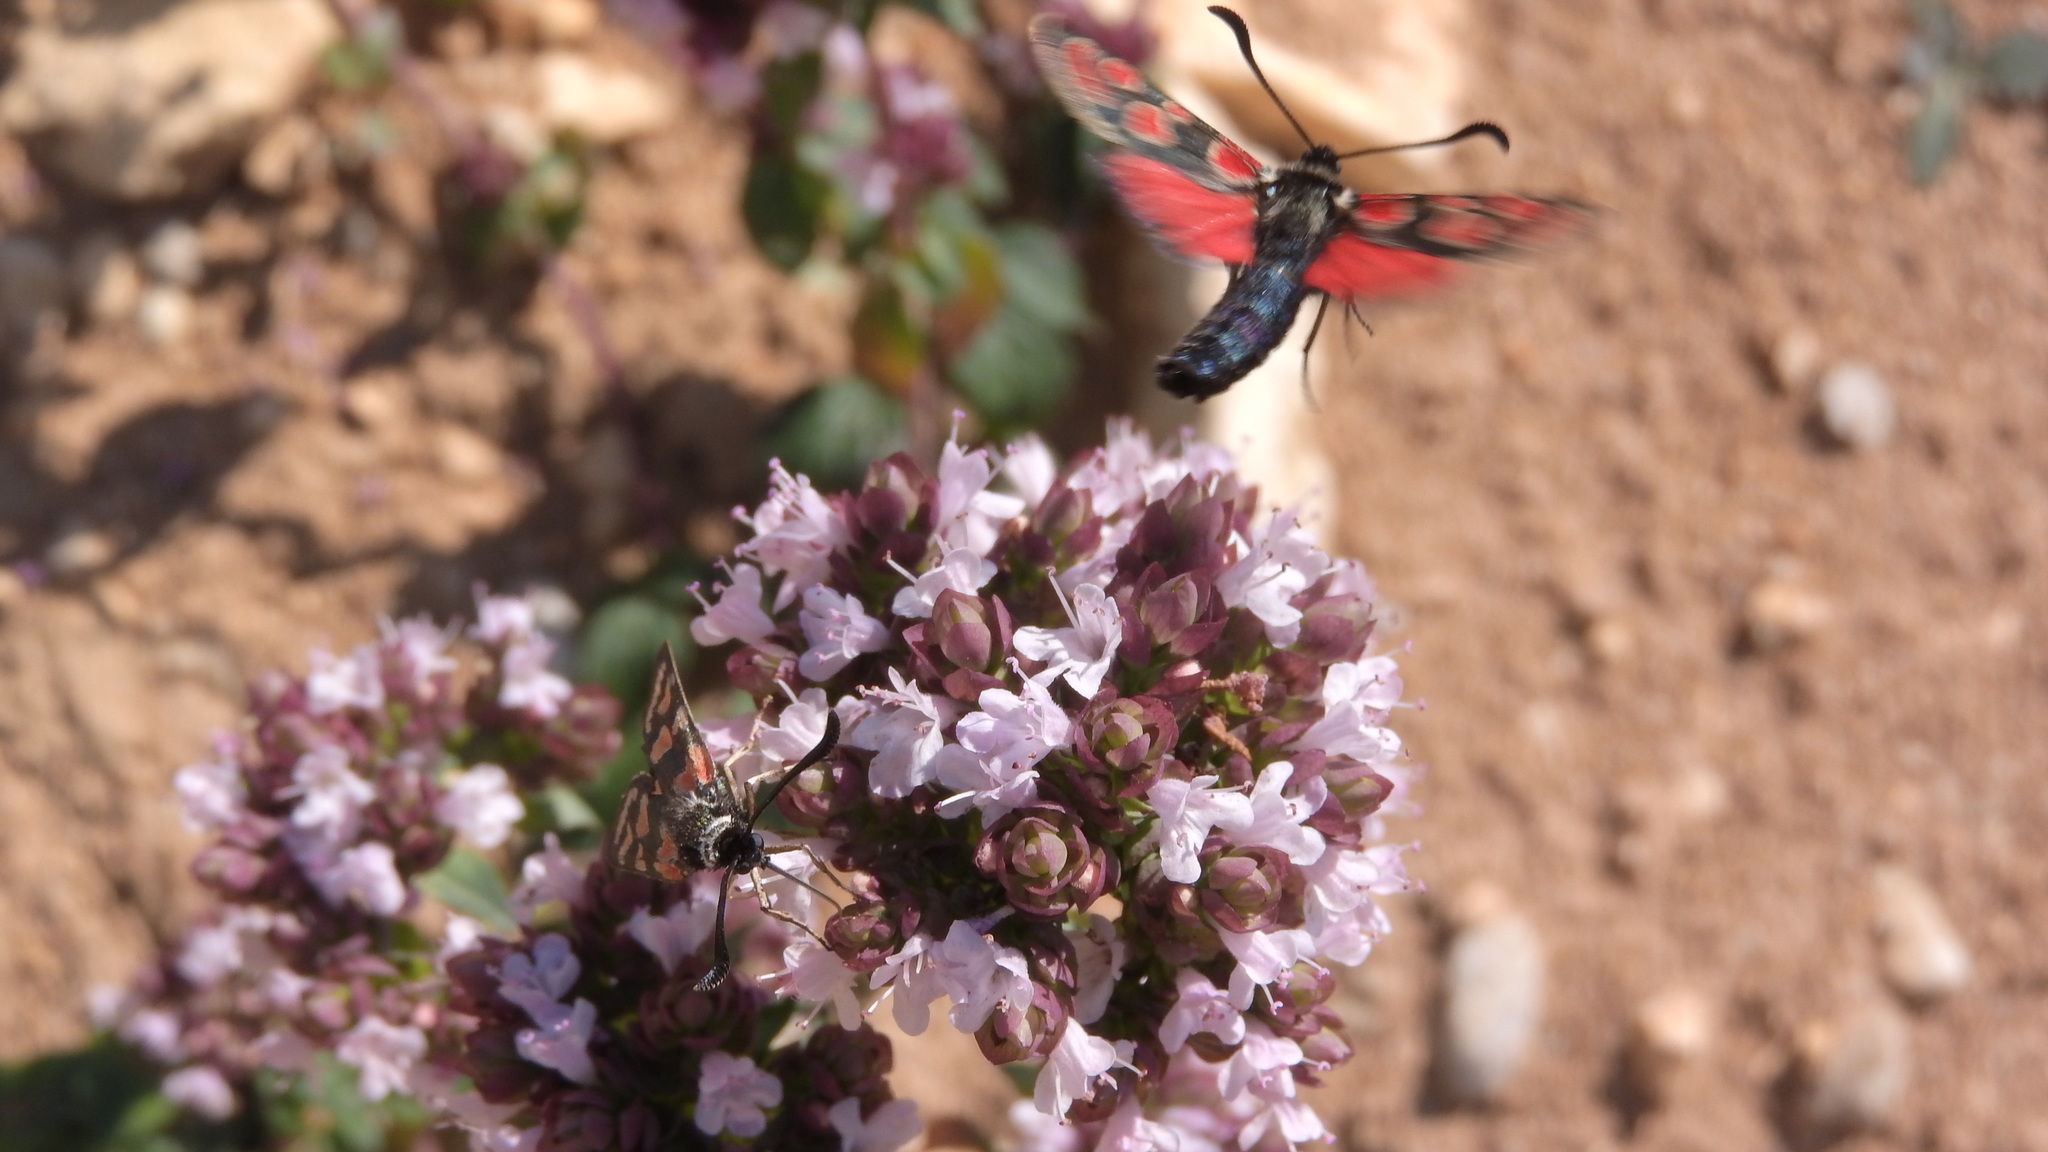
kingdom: Animalia
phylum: Arthropoda
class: Insecta
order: Lepidoptera
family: Zygaenidae
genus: Zygaena
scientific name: Zygaena carniolica
